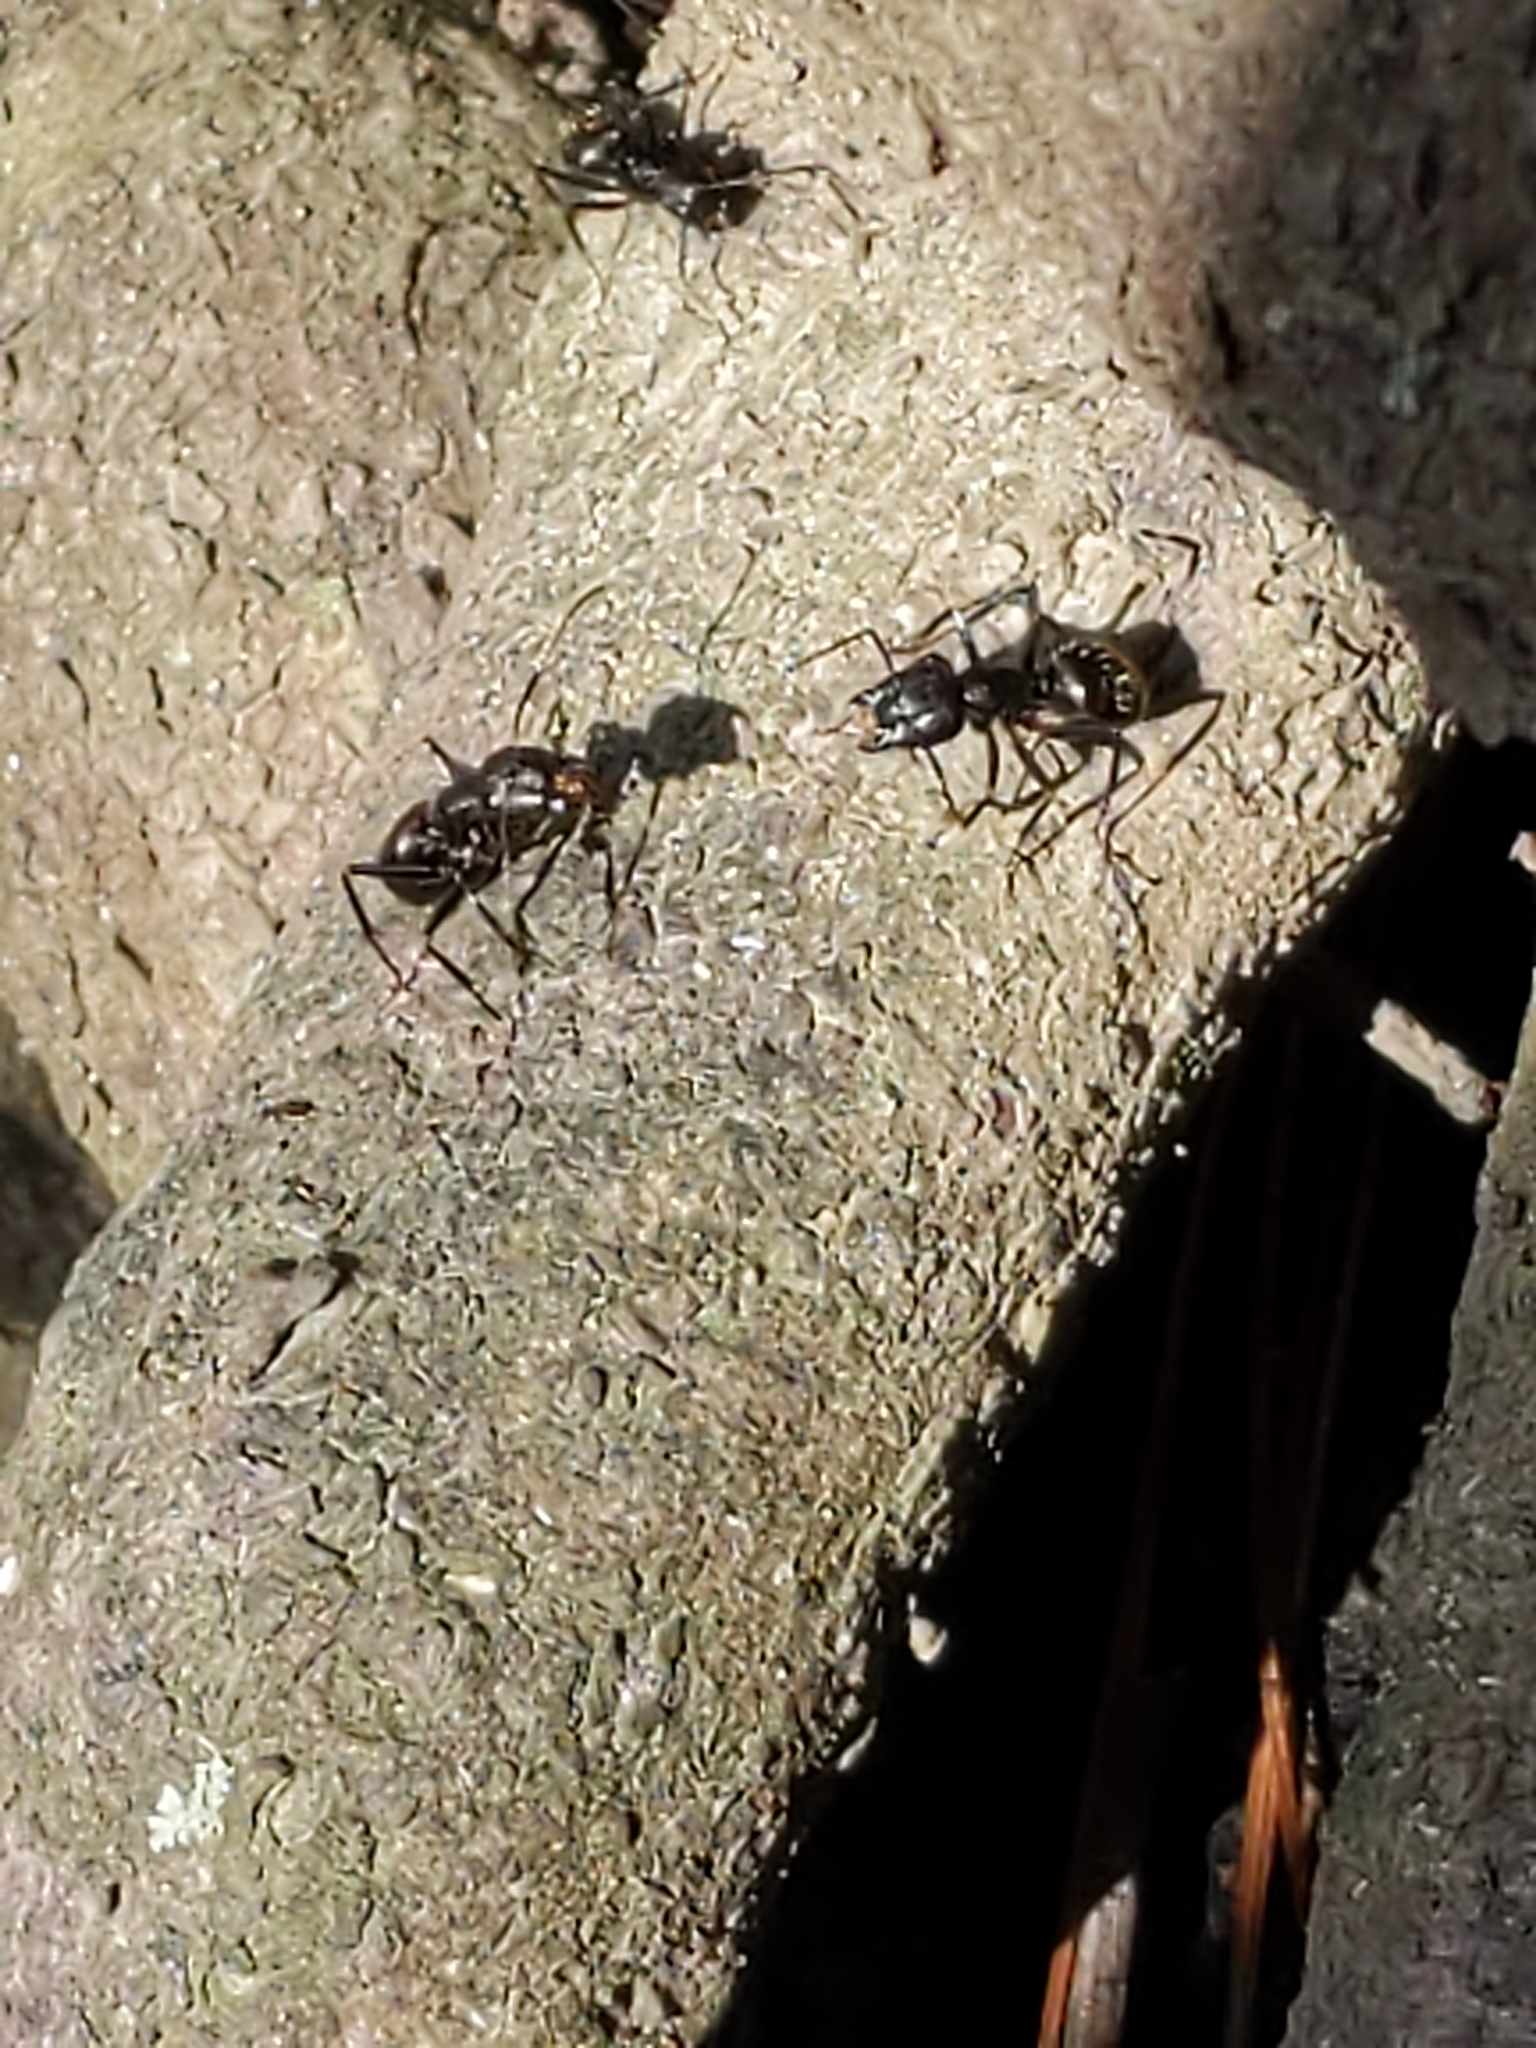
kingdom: Animalia
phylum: Arthropoda
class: Insecta
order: Hymenoptera
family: Formicidae
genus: Camponotus
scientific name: Camponotus pennsylvanicus
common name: Black carpenter ant
